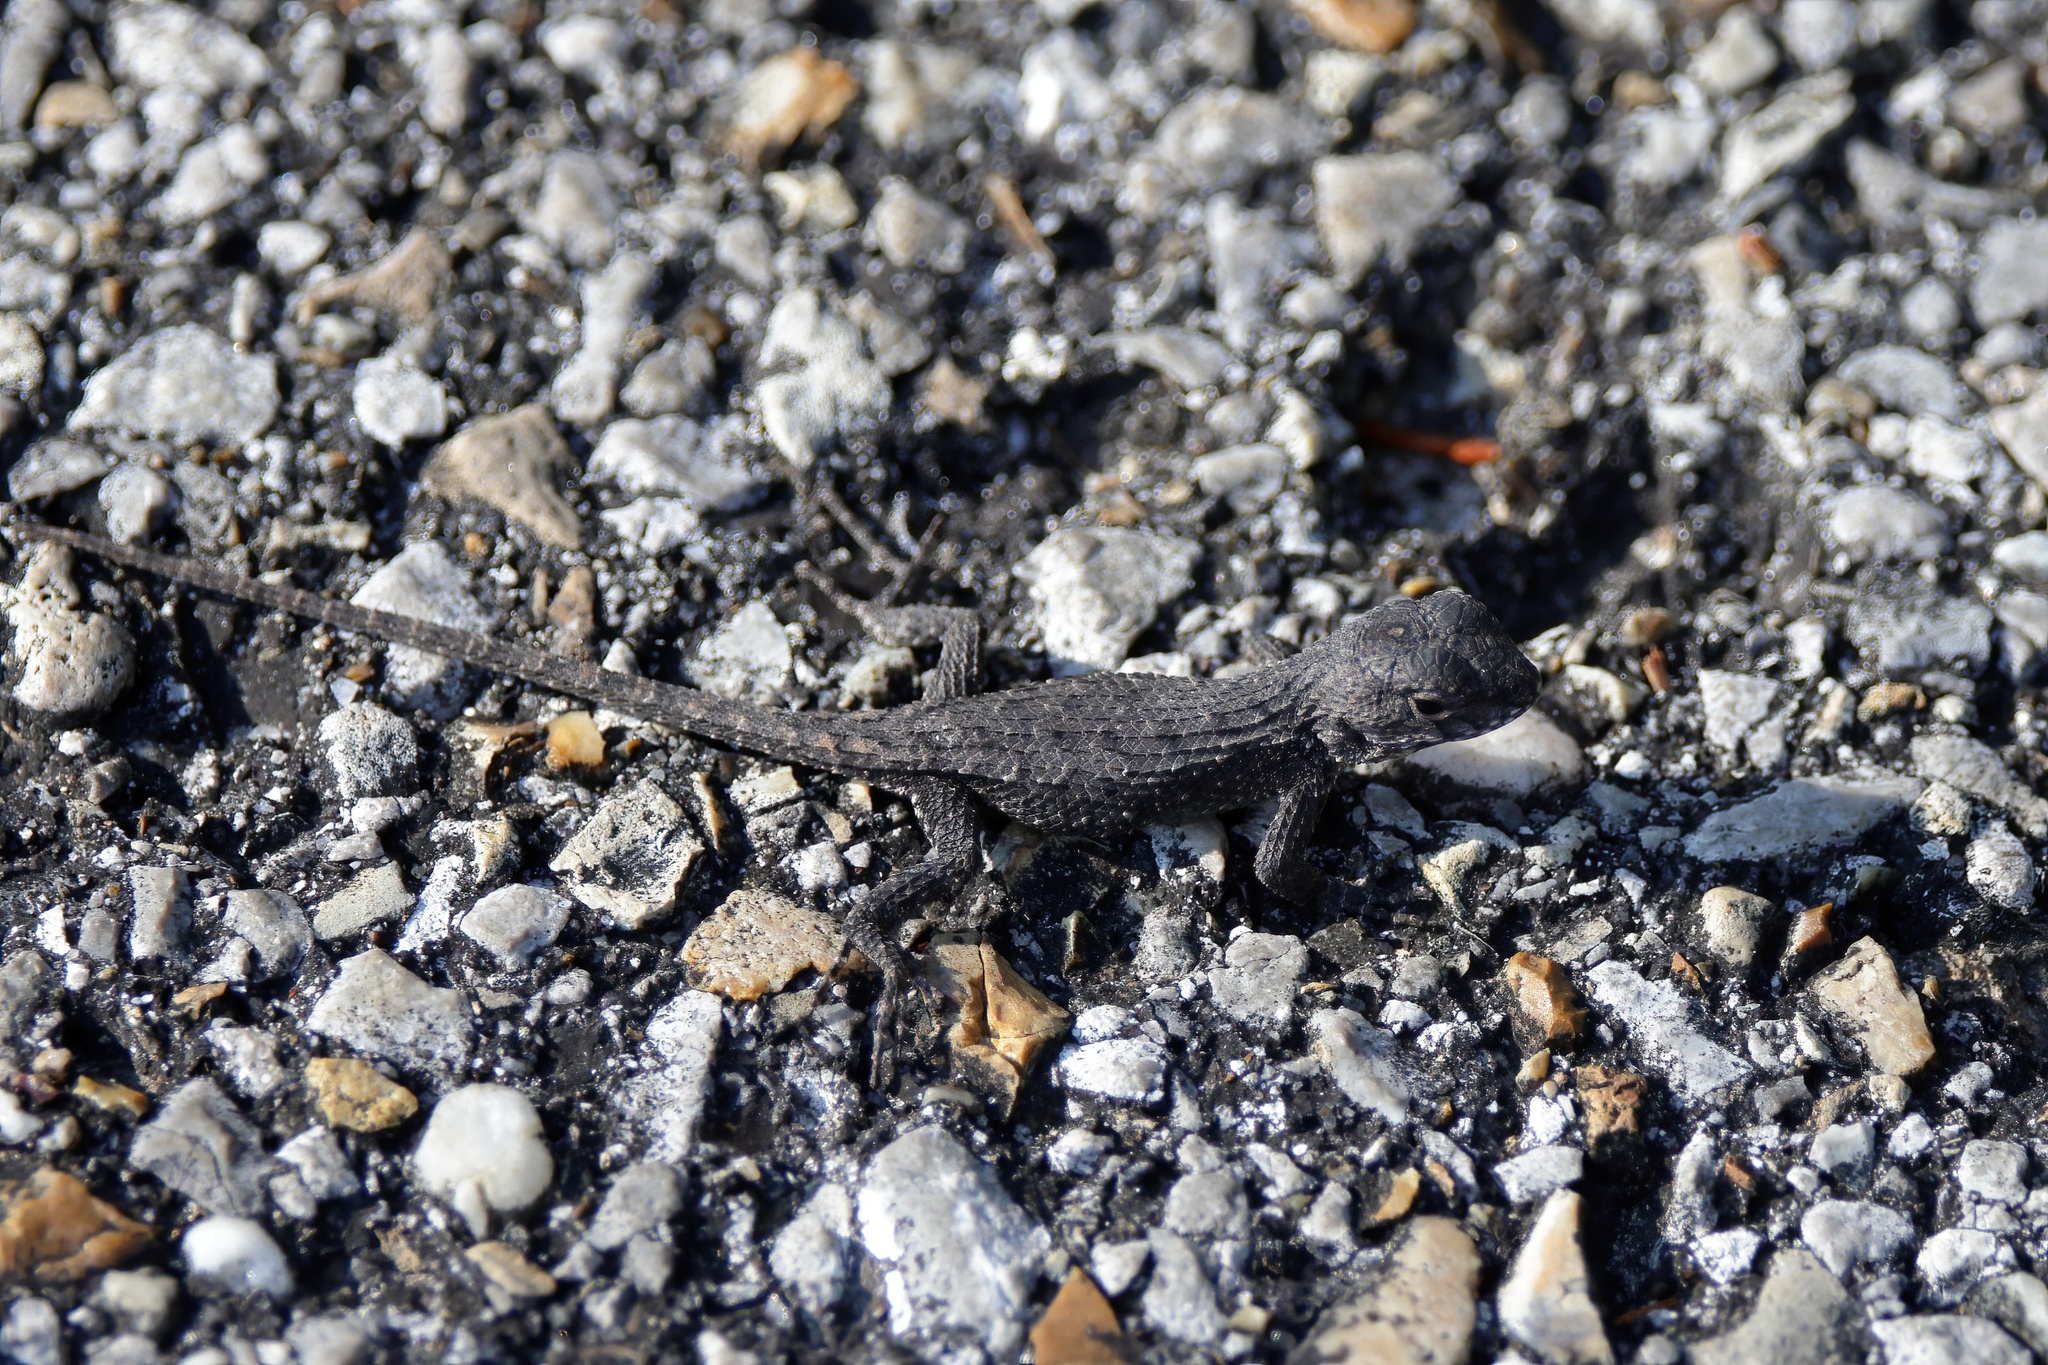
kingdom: Animalia
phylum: Chordata
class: Squamata
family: Phrynosomatidae
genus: Sceloporus
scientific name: Sceloporus undulatus
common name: Eastern fence lizard
